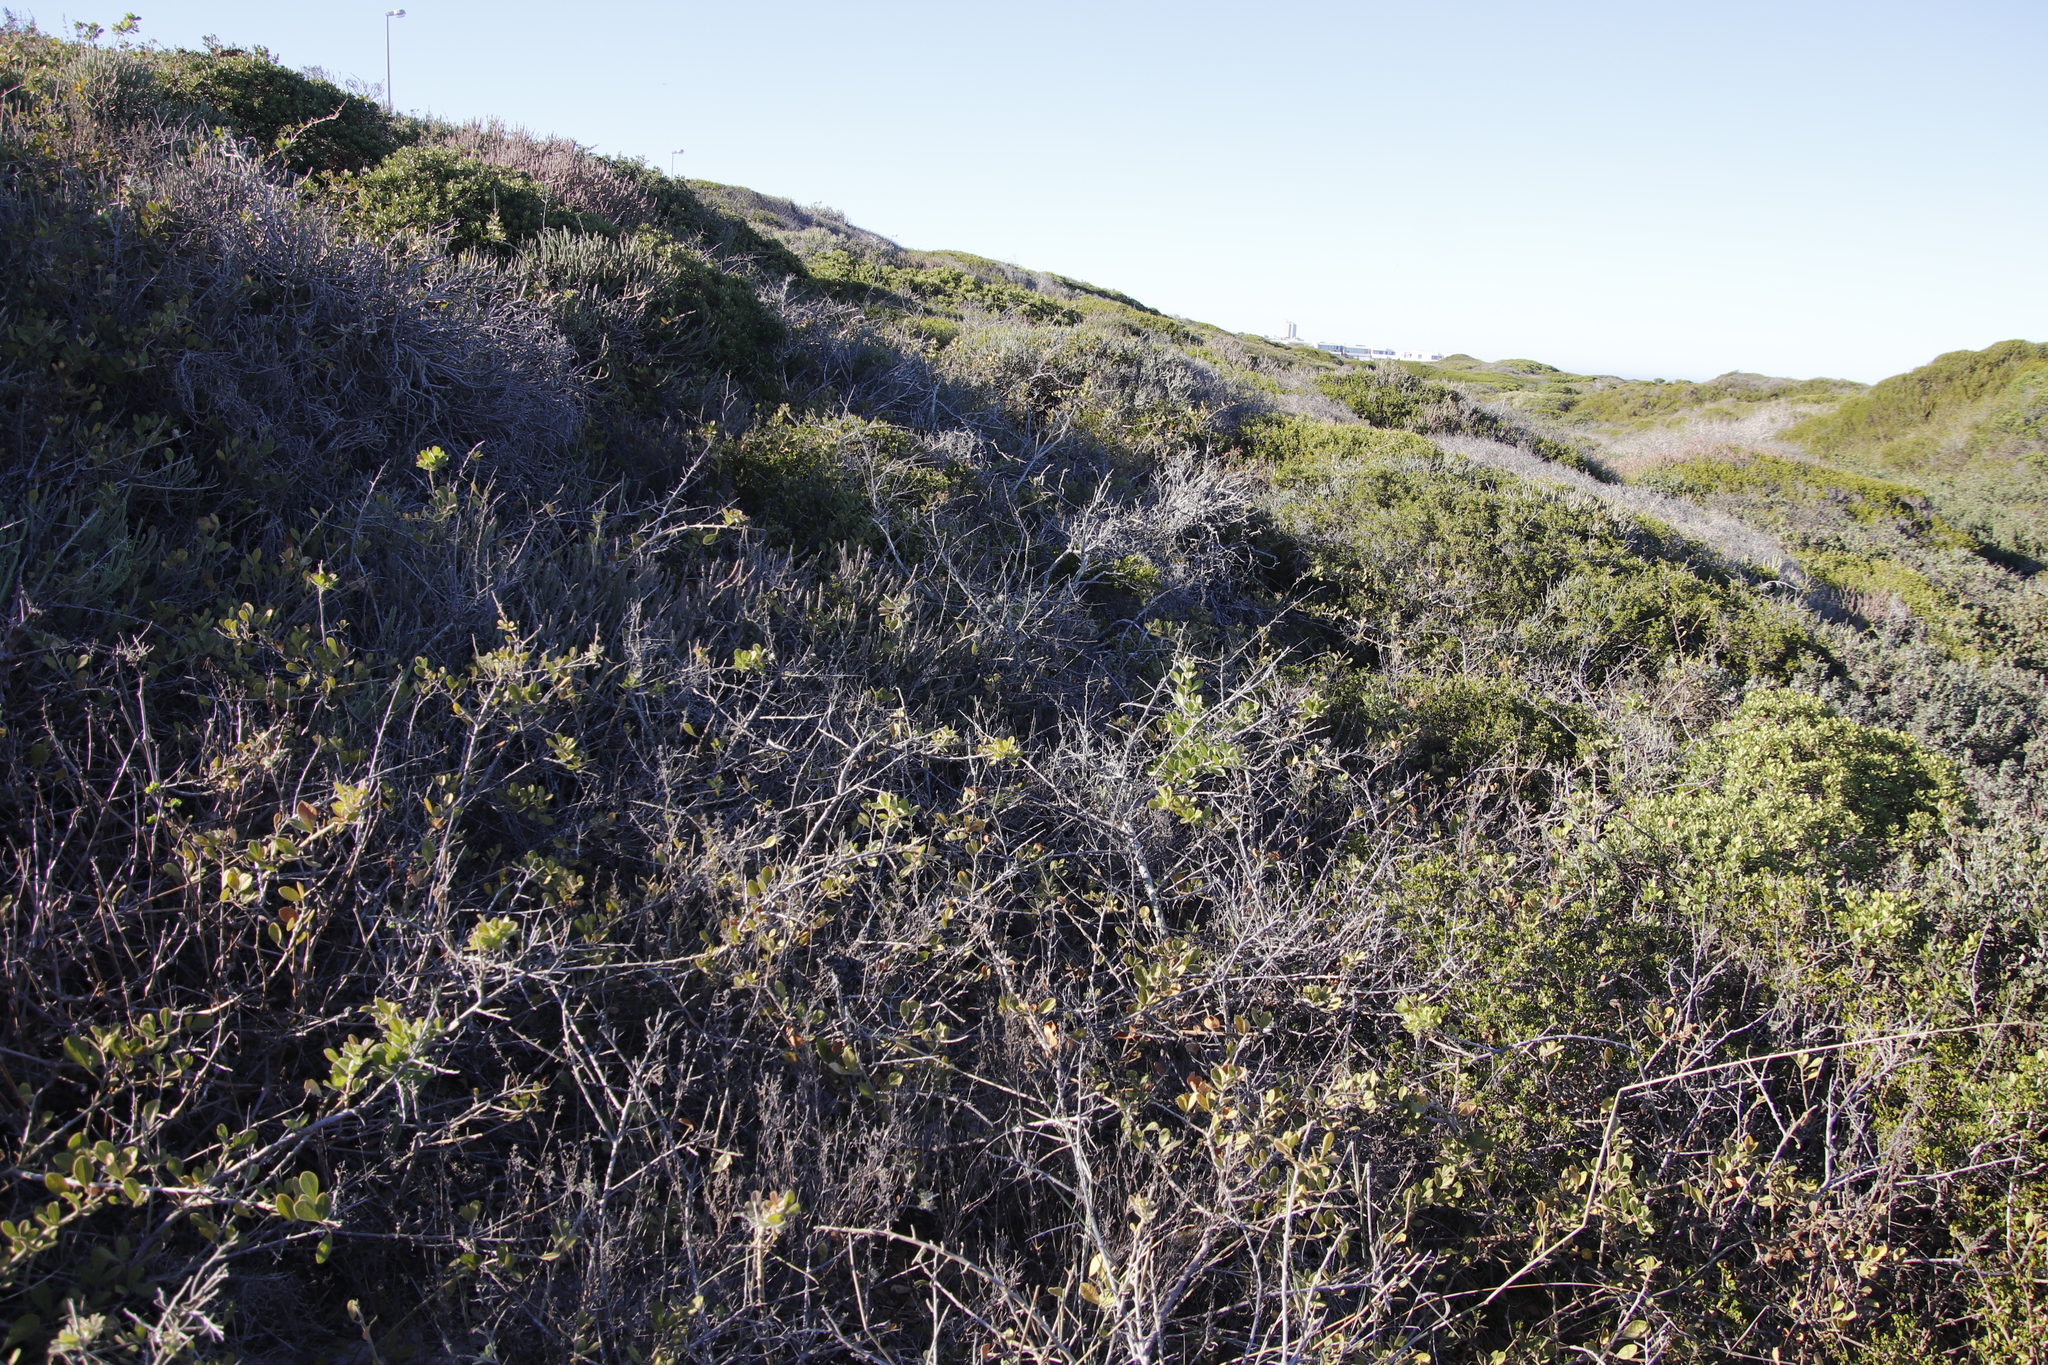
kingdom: Plantae
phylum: Tracheophyta
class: Magnoliopsida
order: Sapindales
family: Anacardiaceae
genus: Searsia
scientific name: Searsia laevigata
